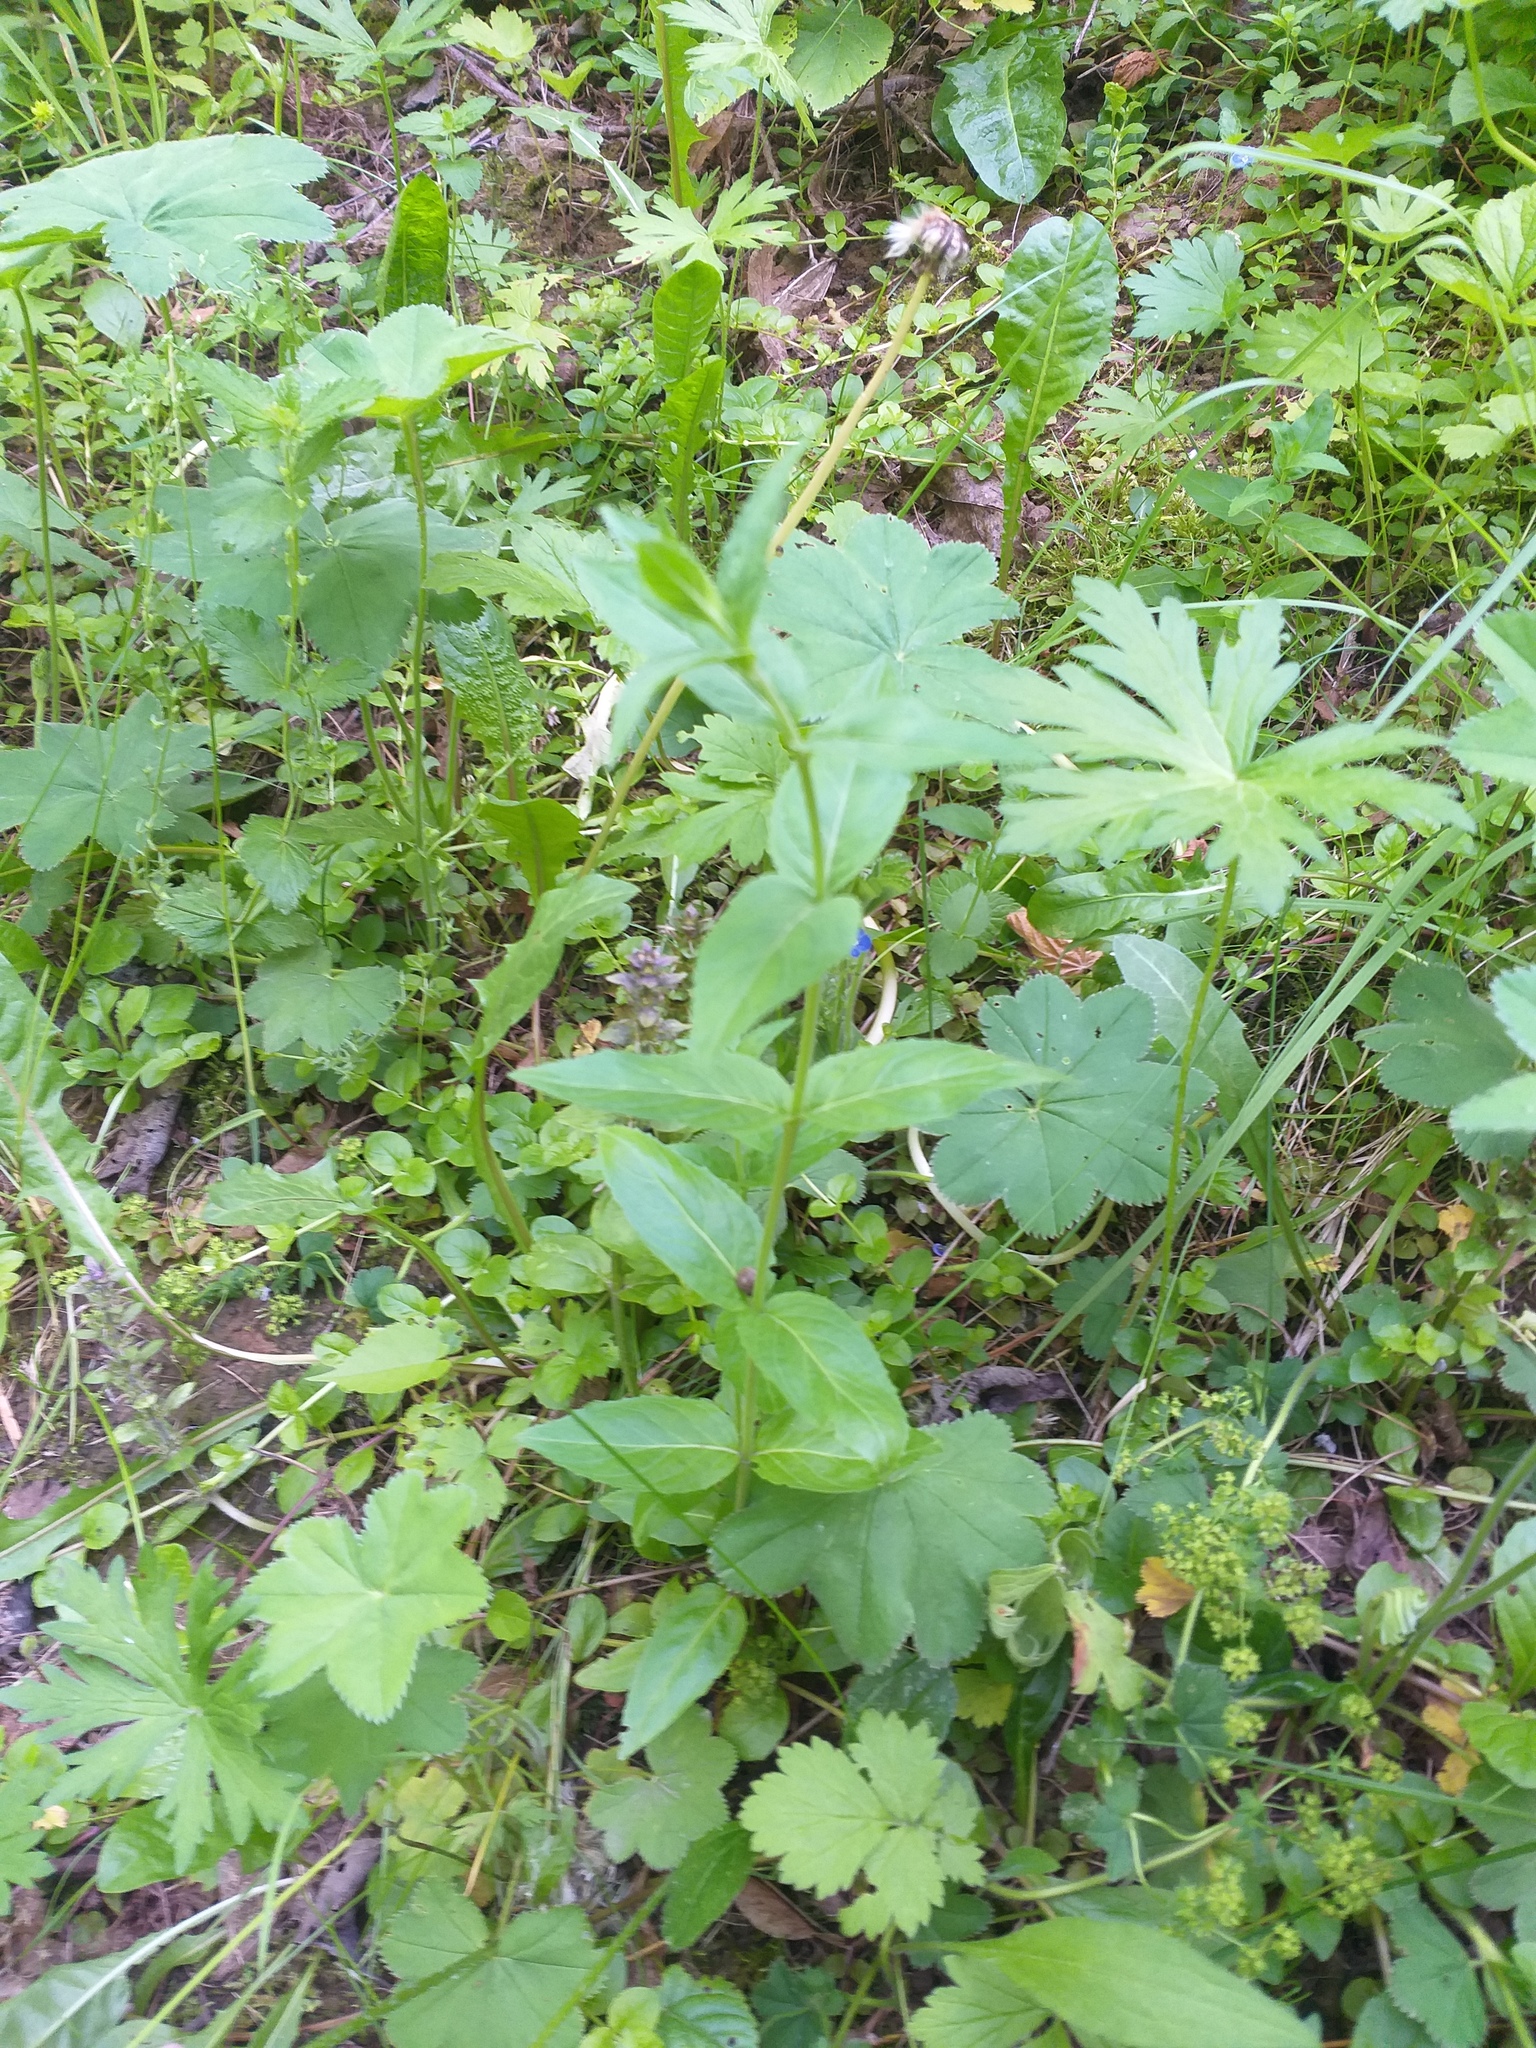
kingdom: Plantae
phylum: Tracheophyta
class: Magnoliopsida
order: Myrtales
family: Onagraceae
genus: Epilobium
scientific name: Epilobium montanum
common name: Broad-leaved willowherb
